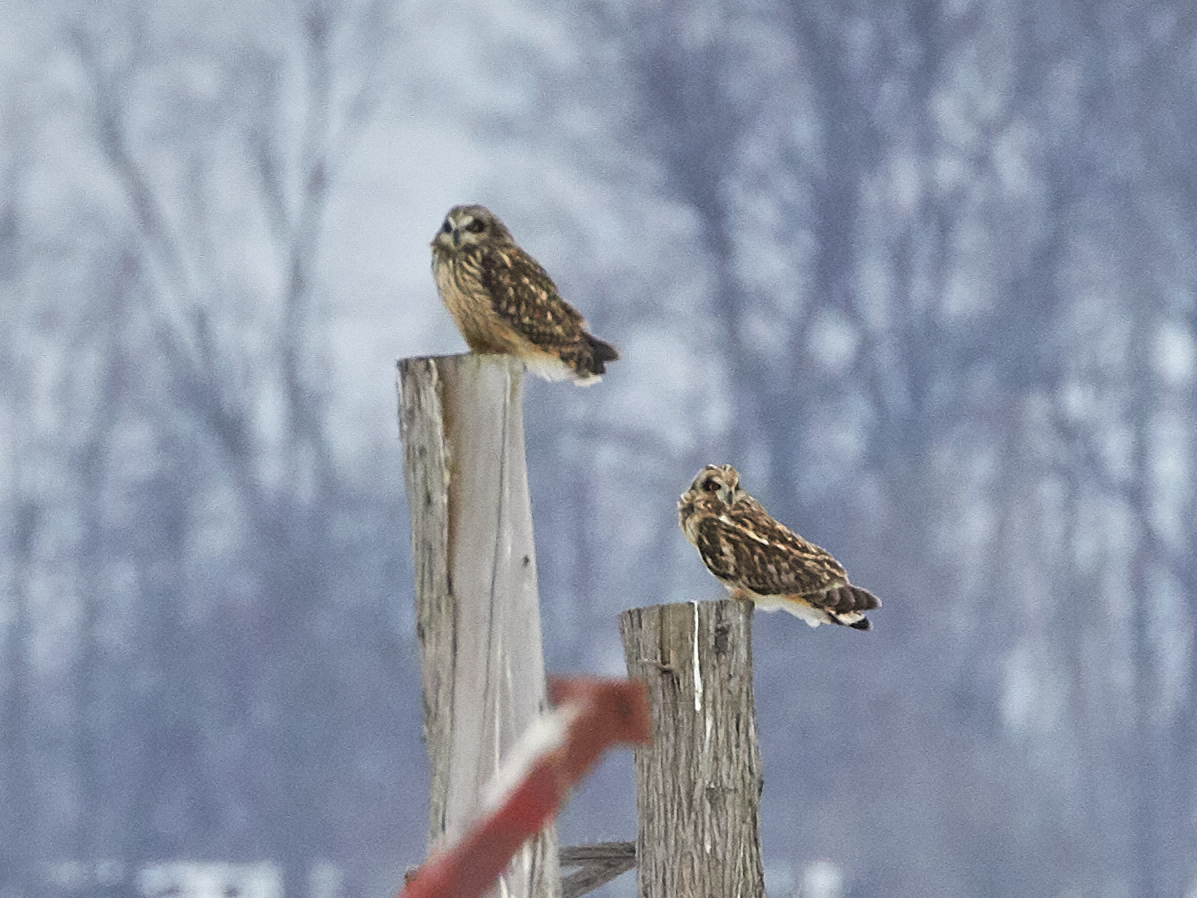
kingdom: Animalia
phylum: Chordata
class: Aves
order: Strigiformes
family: Strigidae
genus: Asio
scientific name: Asio flammeus
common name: Short-eared owl
